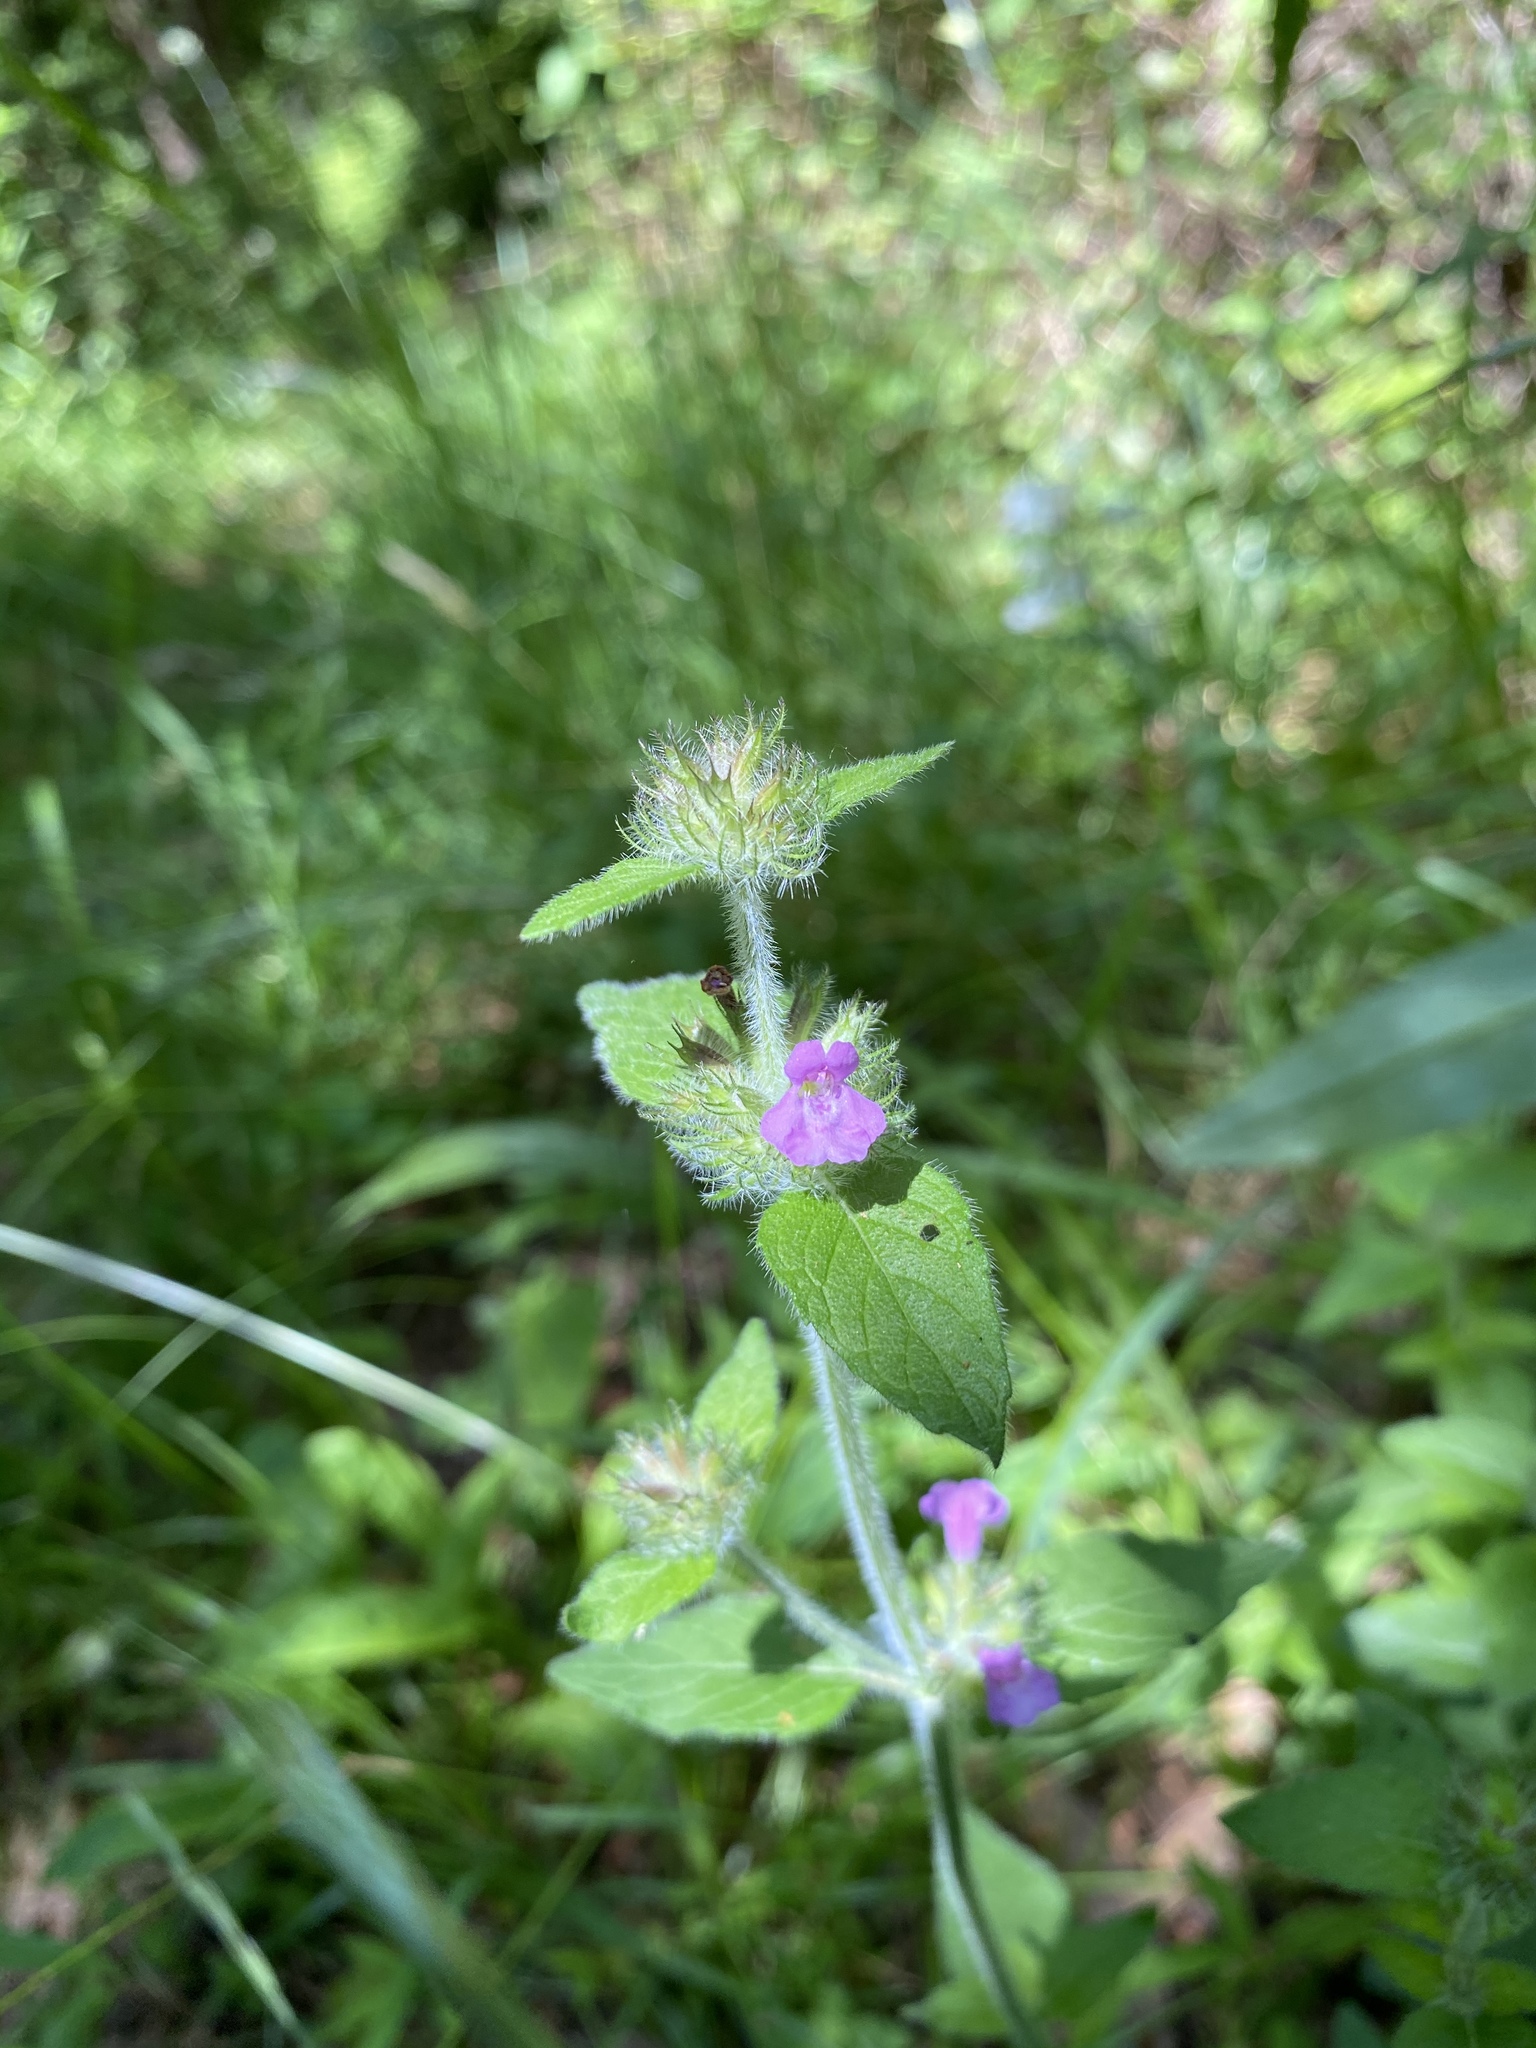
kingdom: Plantae
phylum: Tracheophyta
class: Magnoliopsida
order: Lamiales
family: Lamiaceae
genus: Clinopodium
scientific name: Clinopodium vulgare
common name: Wild basil
